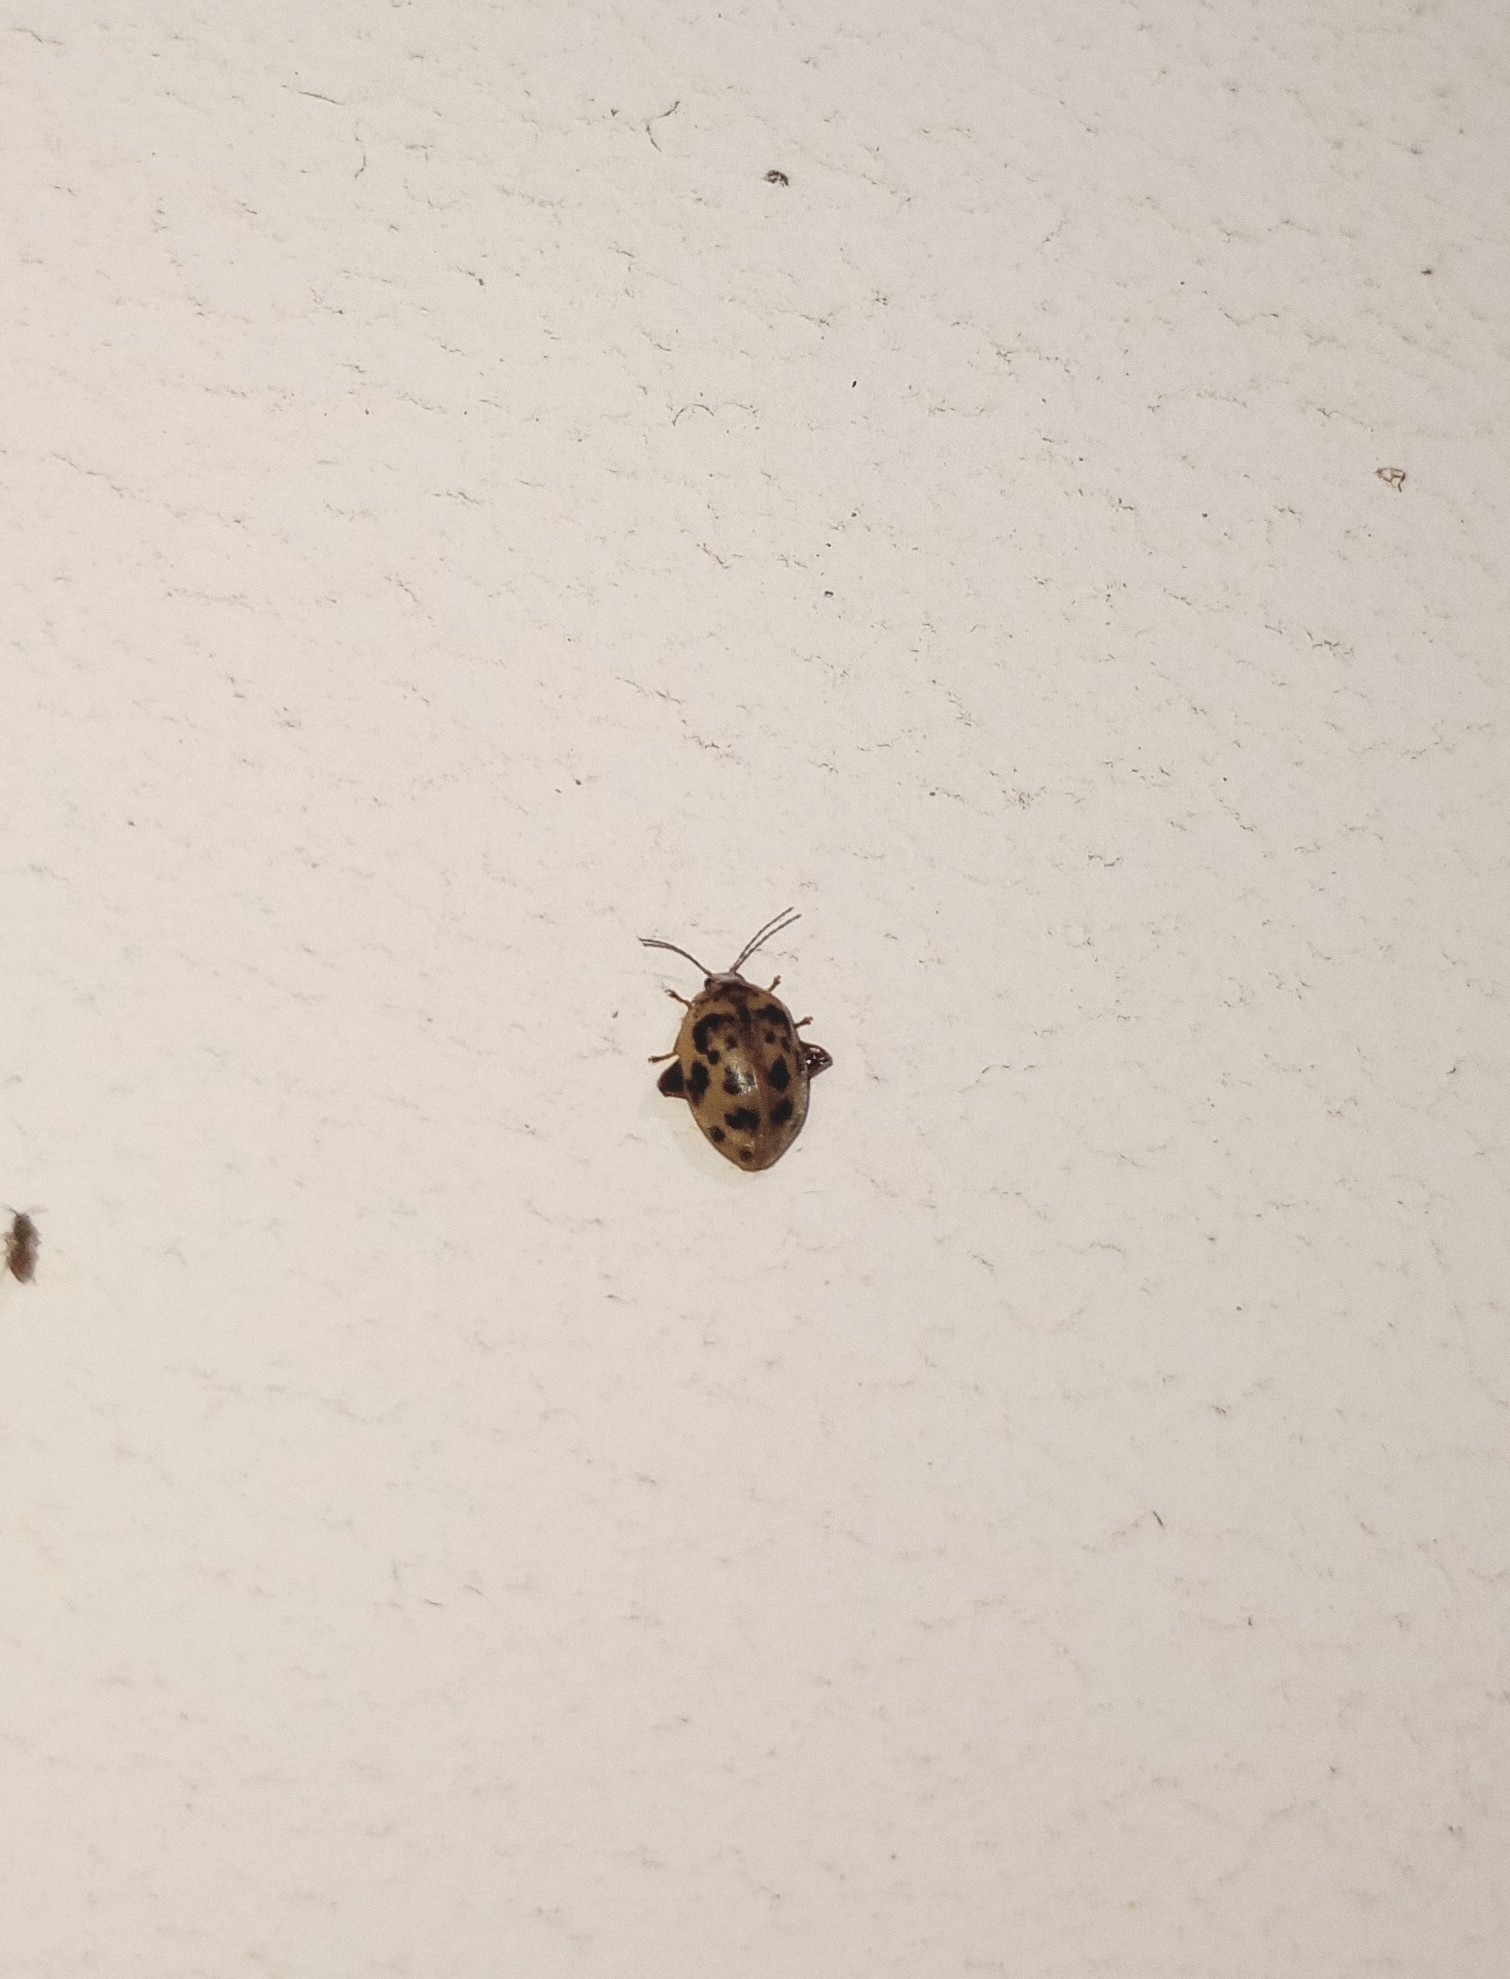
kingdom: Animalia
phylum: Arthropoda
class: Insecta
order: Coleoptera
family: Scirtidae
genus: Ora
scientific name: Ora
